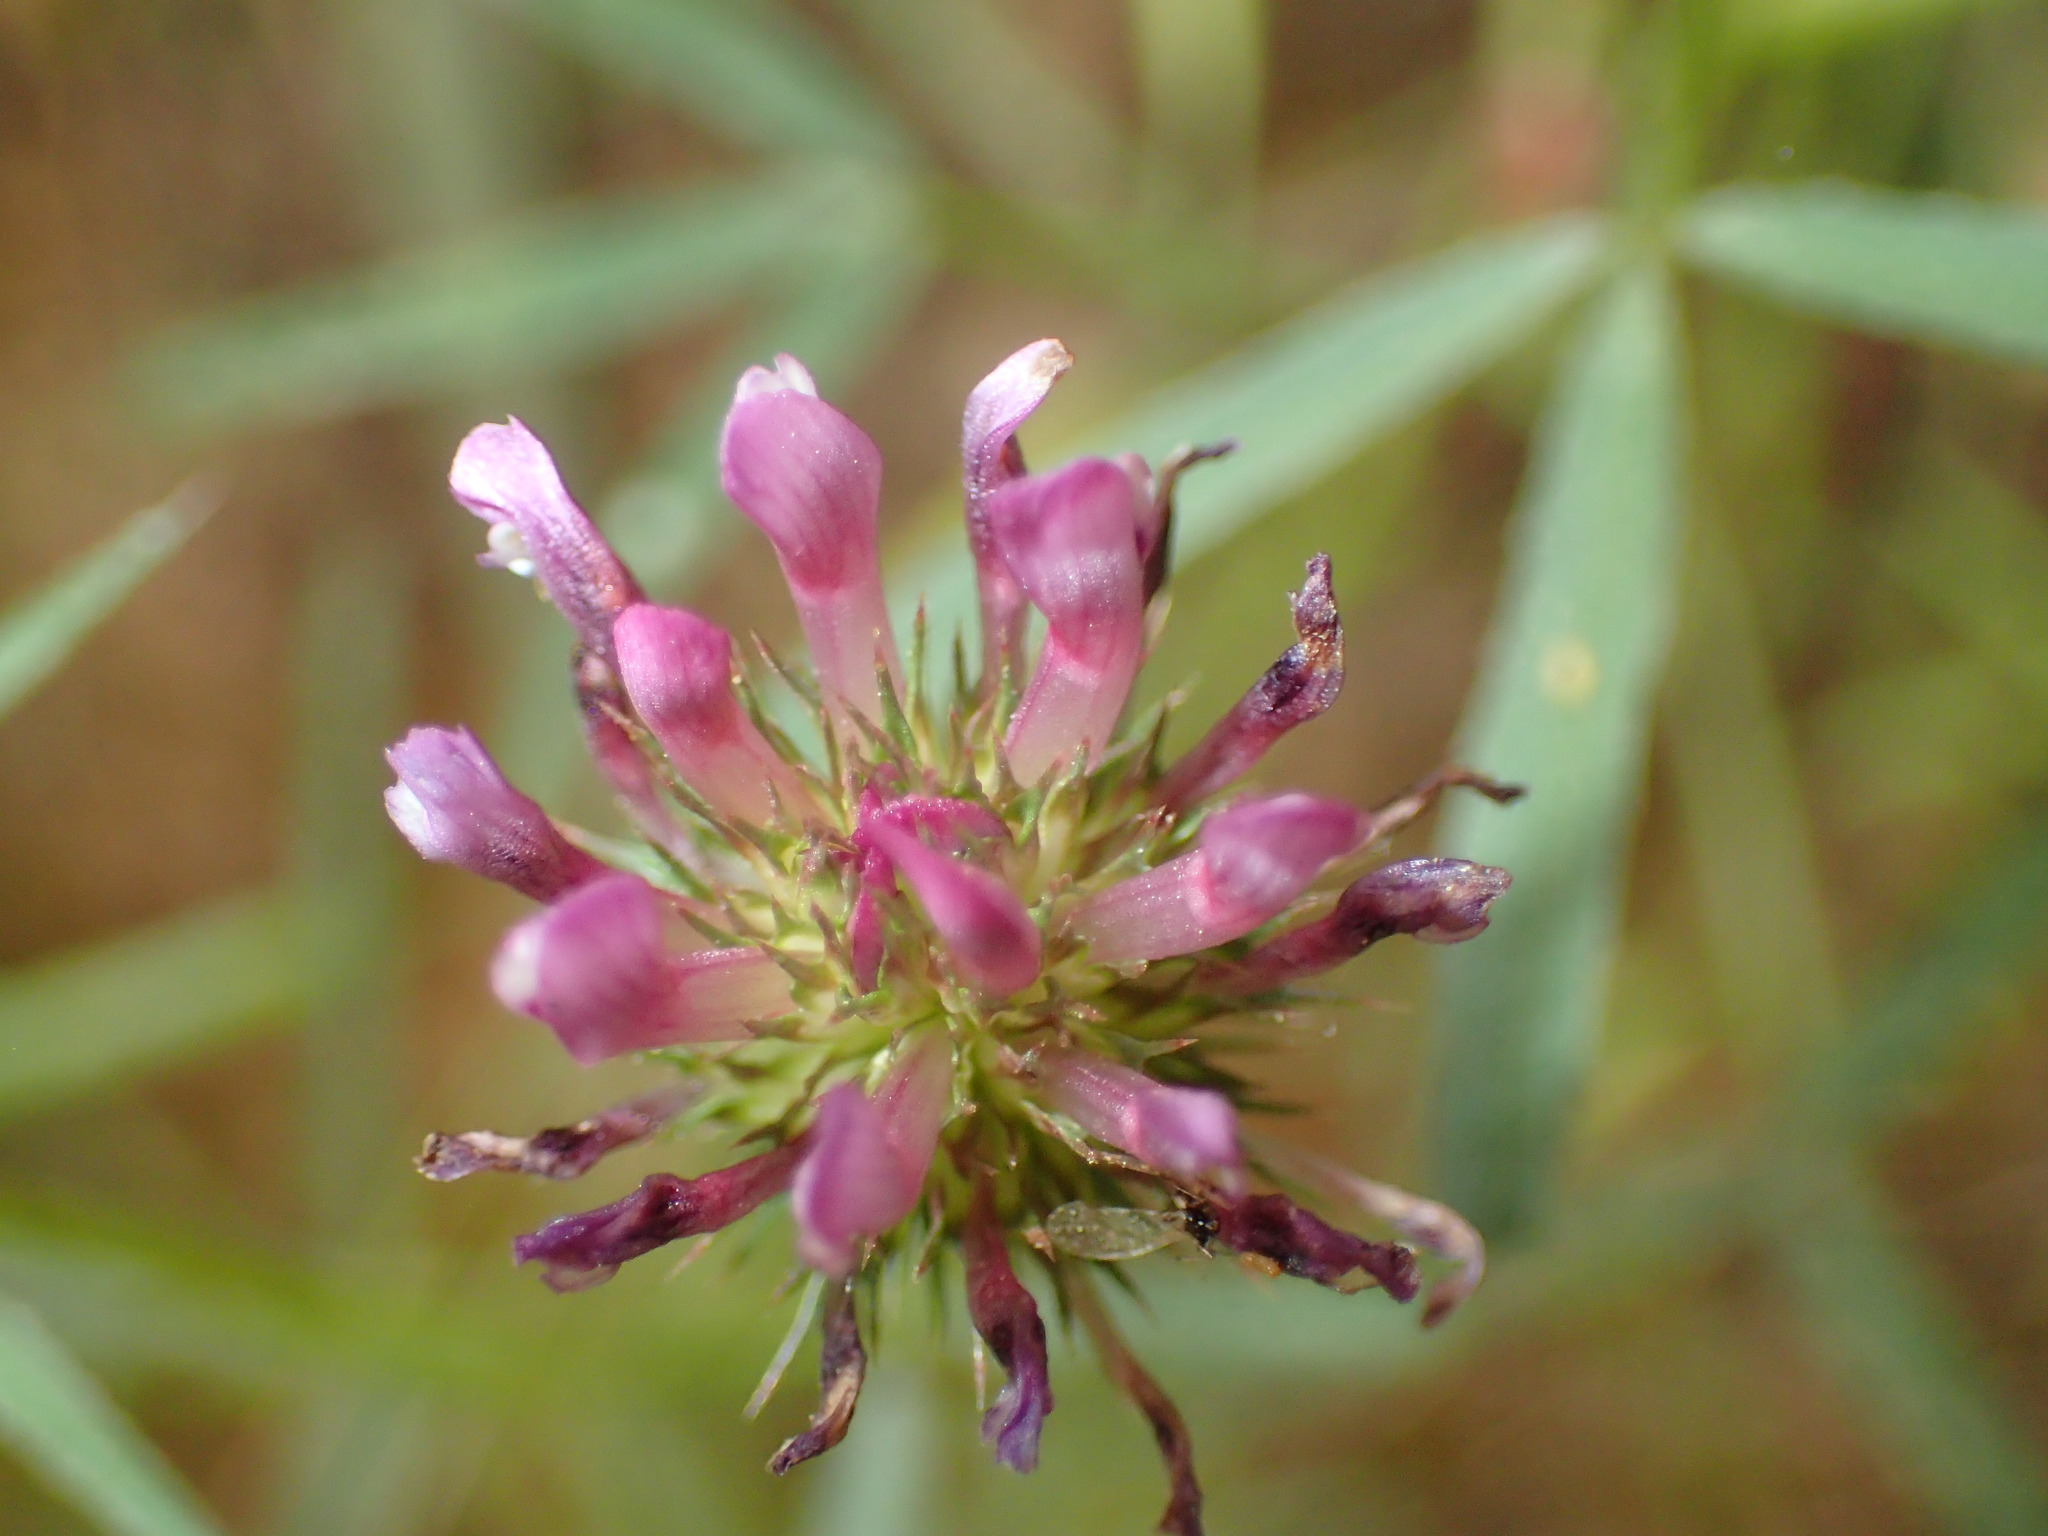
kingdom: Plantae
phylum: Tracheophyta
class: Magnoliopsida
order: Fabales
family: Fabaceae
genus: Trifolium
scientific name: Trifolium willdenovii
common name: Tomcat clover
